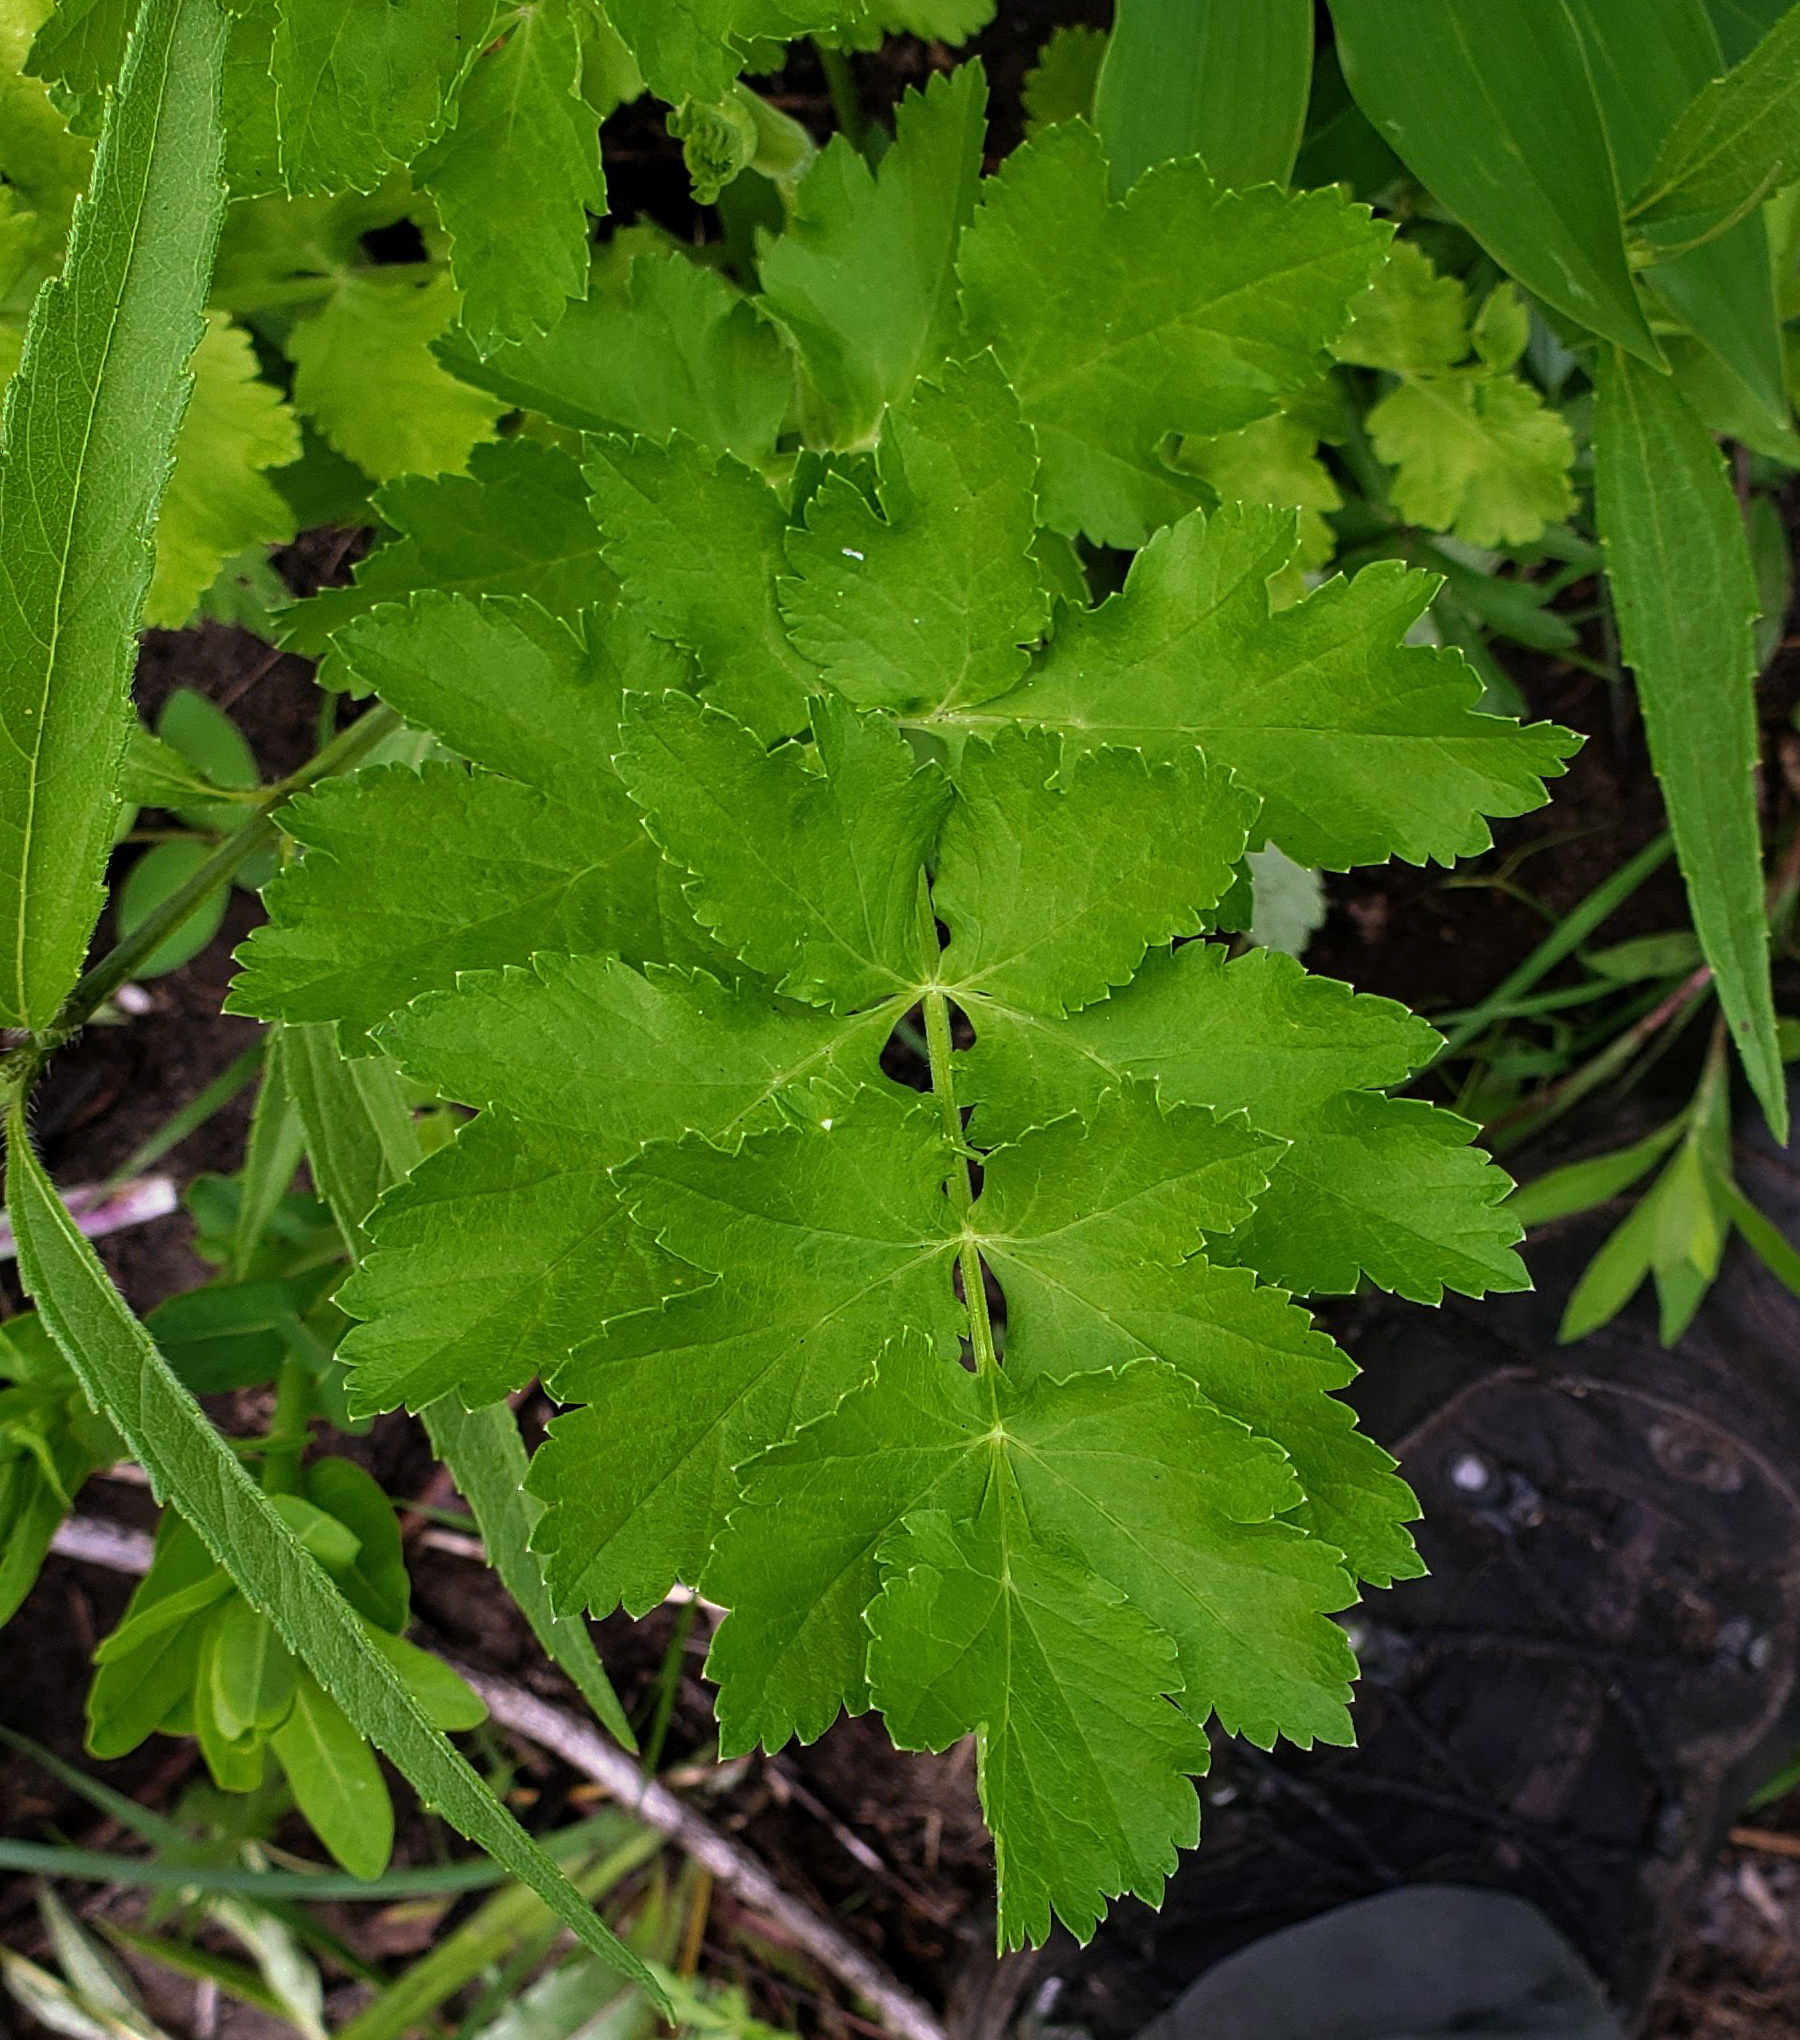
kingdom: Plantae
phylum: Tracheophyta
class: Magnoliopsida
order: Apiales
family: Apiaceae
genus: Pastinaca
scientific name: Pastinaca sativa
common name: Wild parsnip
